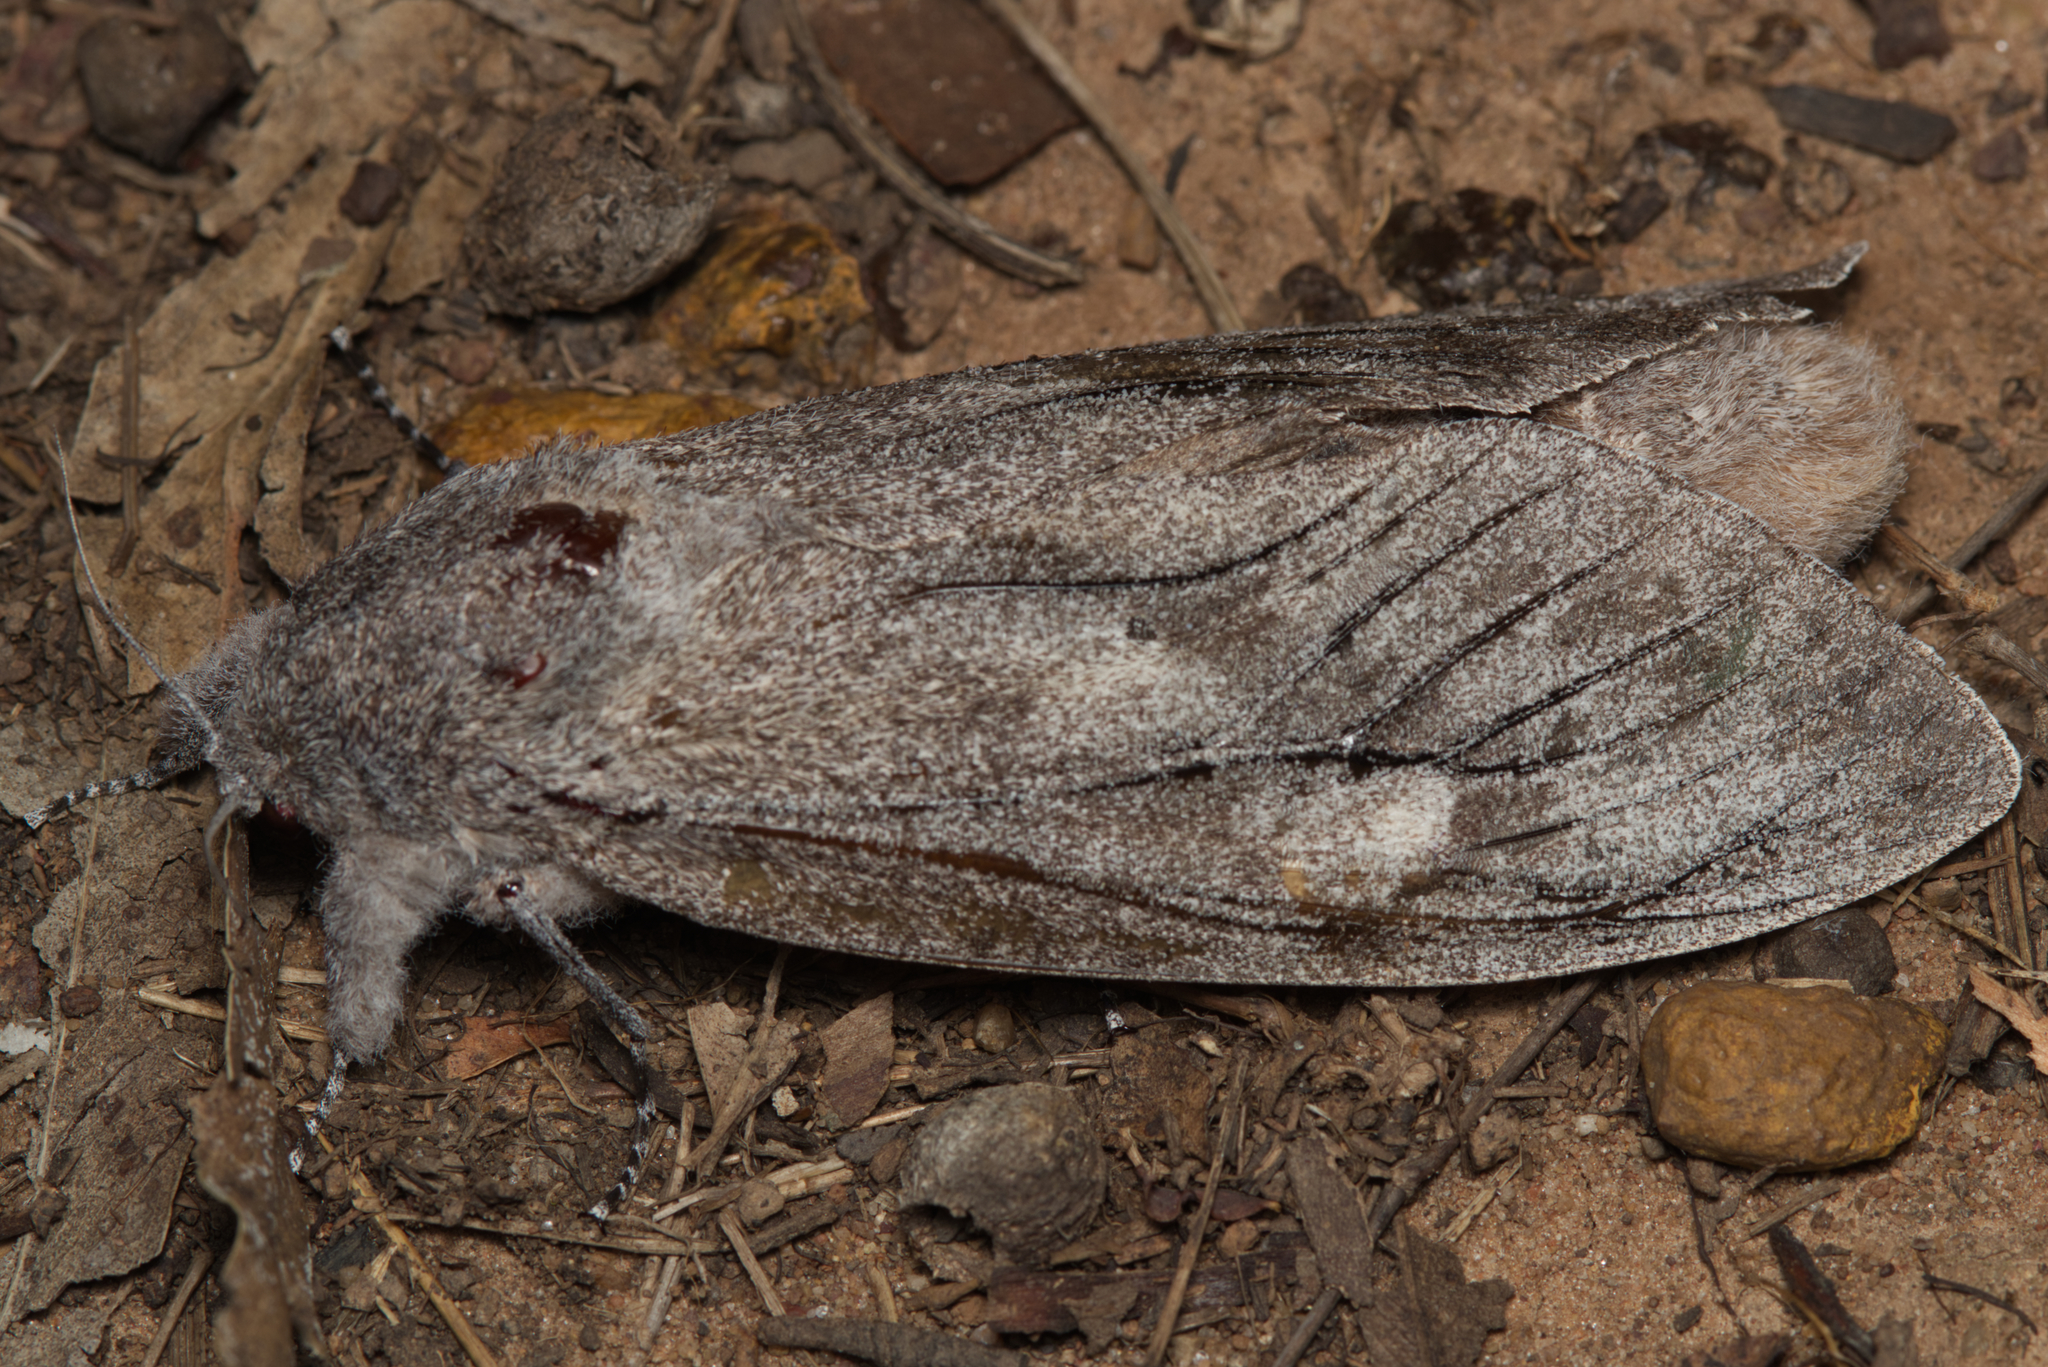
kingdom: Animalia
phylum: Arthropoda
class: Insecta
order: Lepidoptera
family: Cossidae
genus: Endoxyla
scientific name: Endoxyla cinereus
